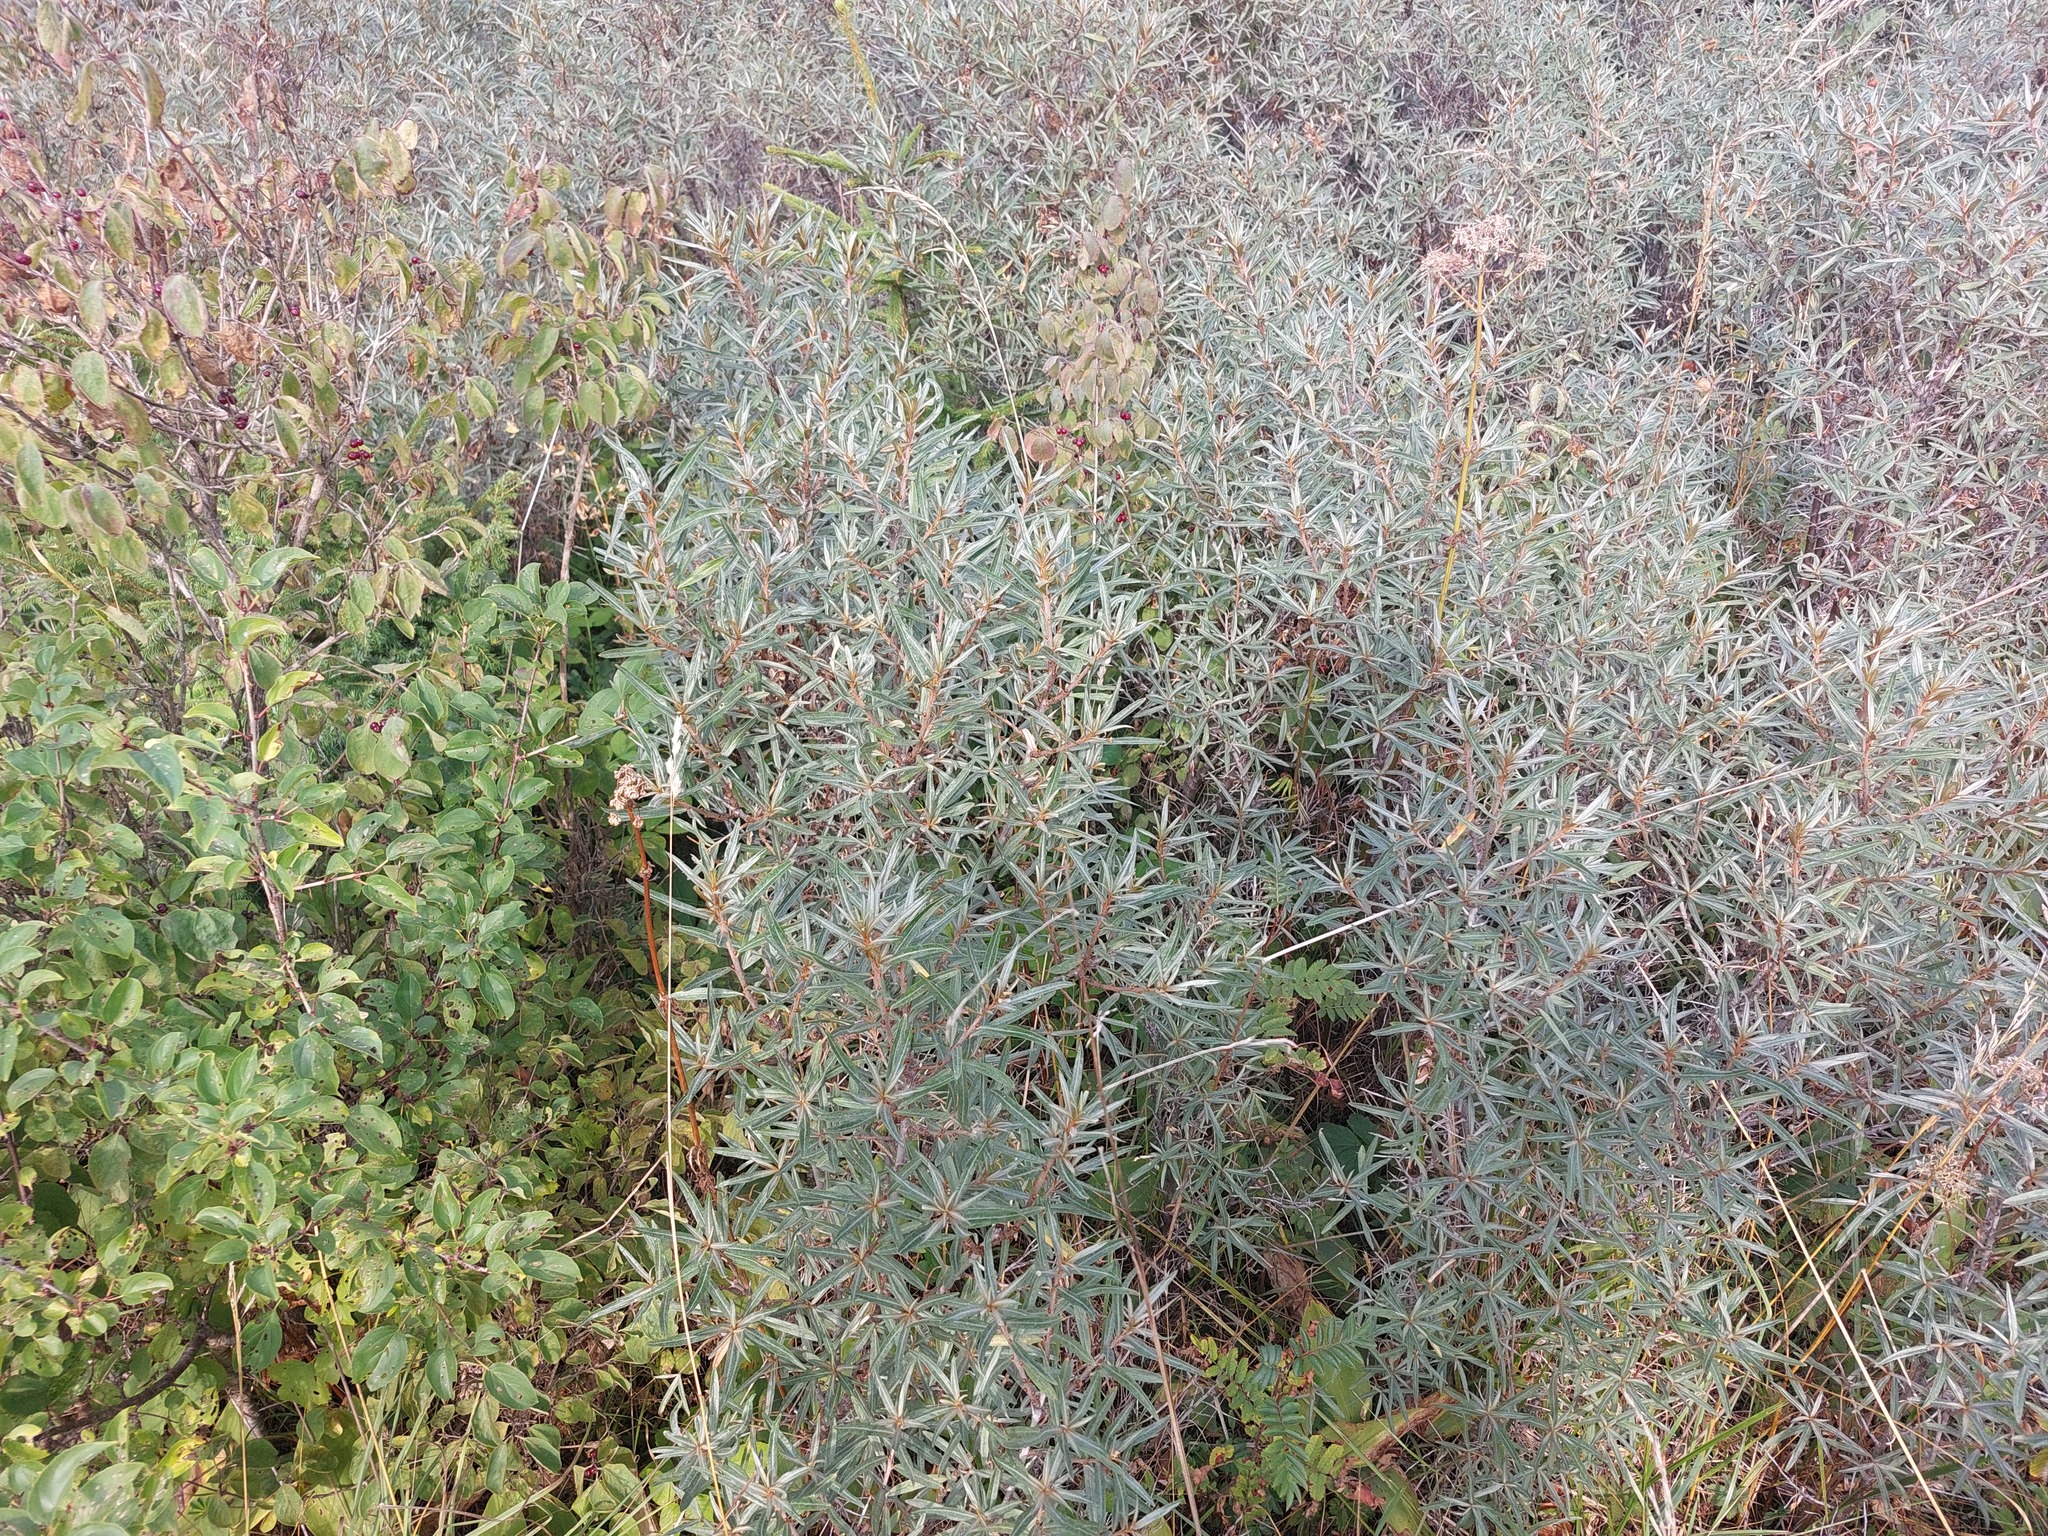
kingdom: Plantae
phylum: Tracheophyta
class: Magnoliopsida
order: Rosales
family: Elaeagnaceae
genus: Hippophae
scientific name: Hippophae rhamnoides
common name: Sea-buckthorn
